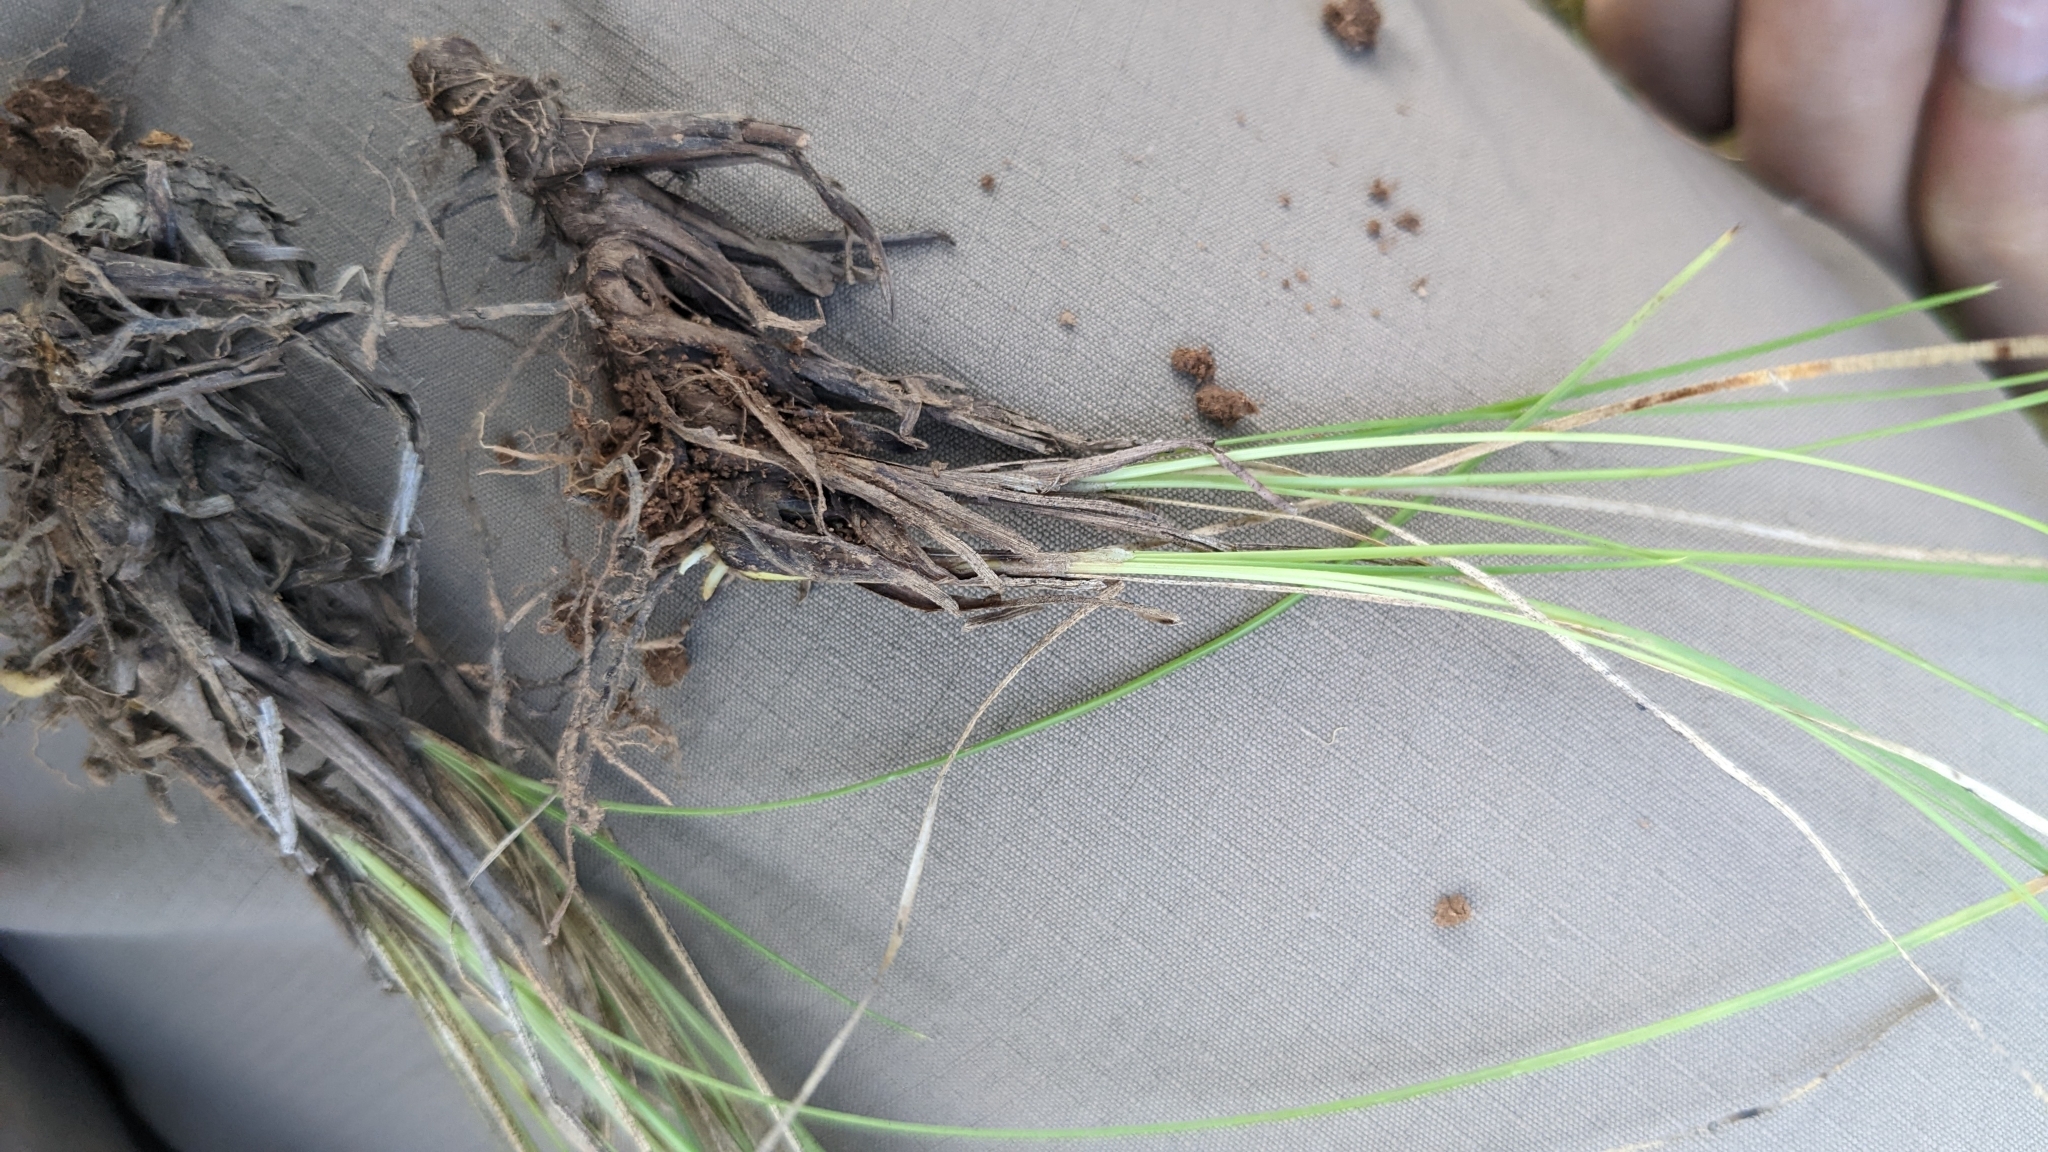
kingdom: Plantae
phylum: Tracheophyta
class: Liliopsida
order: Poales
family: Cyperaceae
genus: Abildgaardia
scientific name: Abildgaardia ovata
